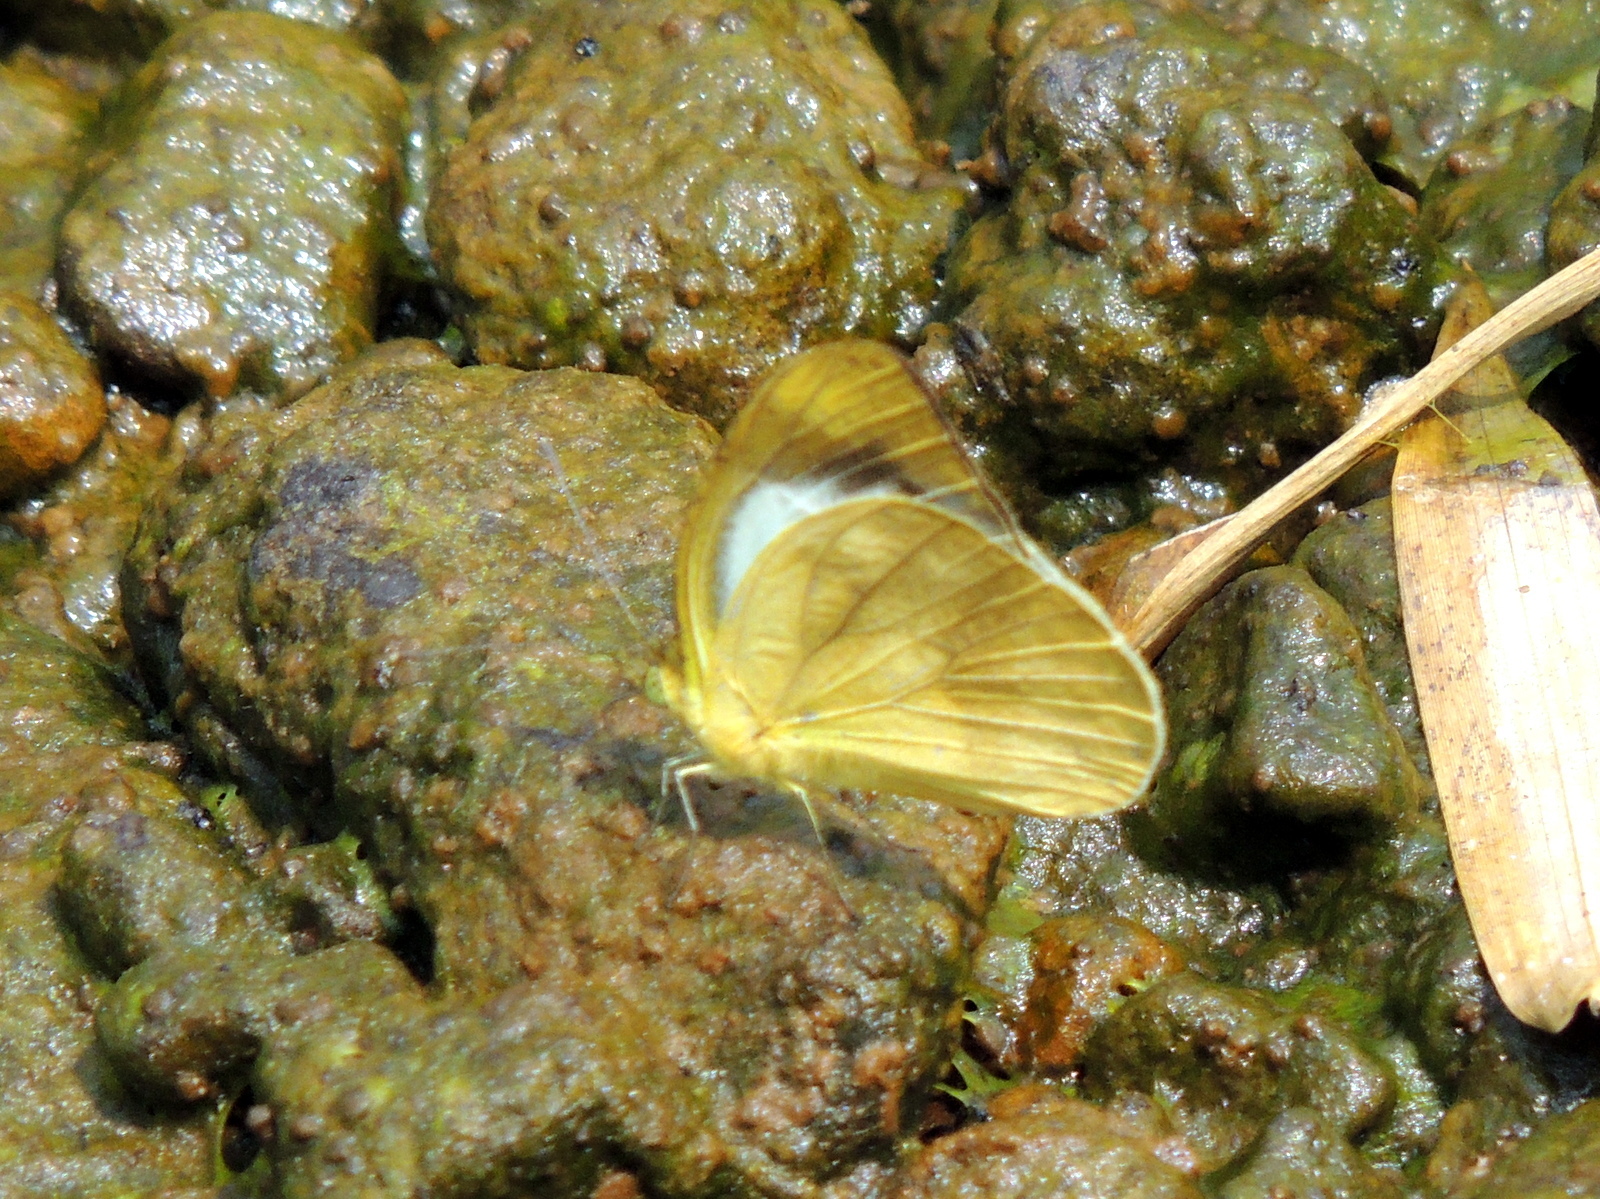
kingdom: Animalia
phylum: Arthropoda
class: Insecta
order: Lepidoptera
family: Pieridae
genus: Cepora
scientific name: Cepora nadina
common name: Lesser gull
